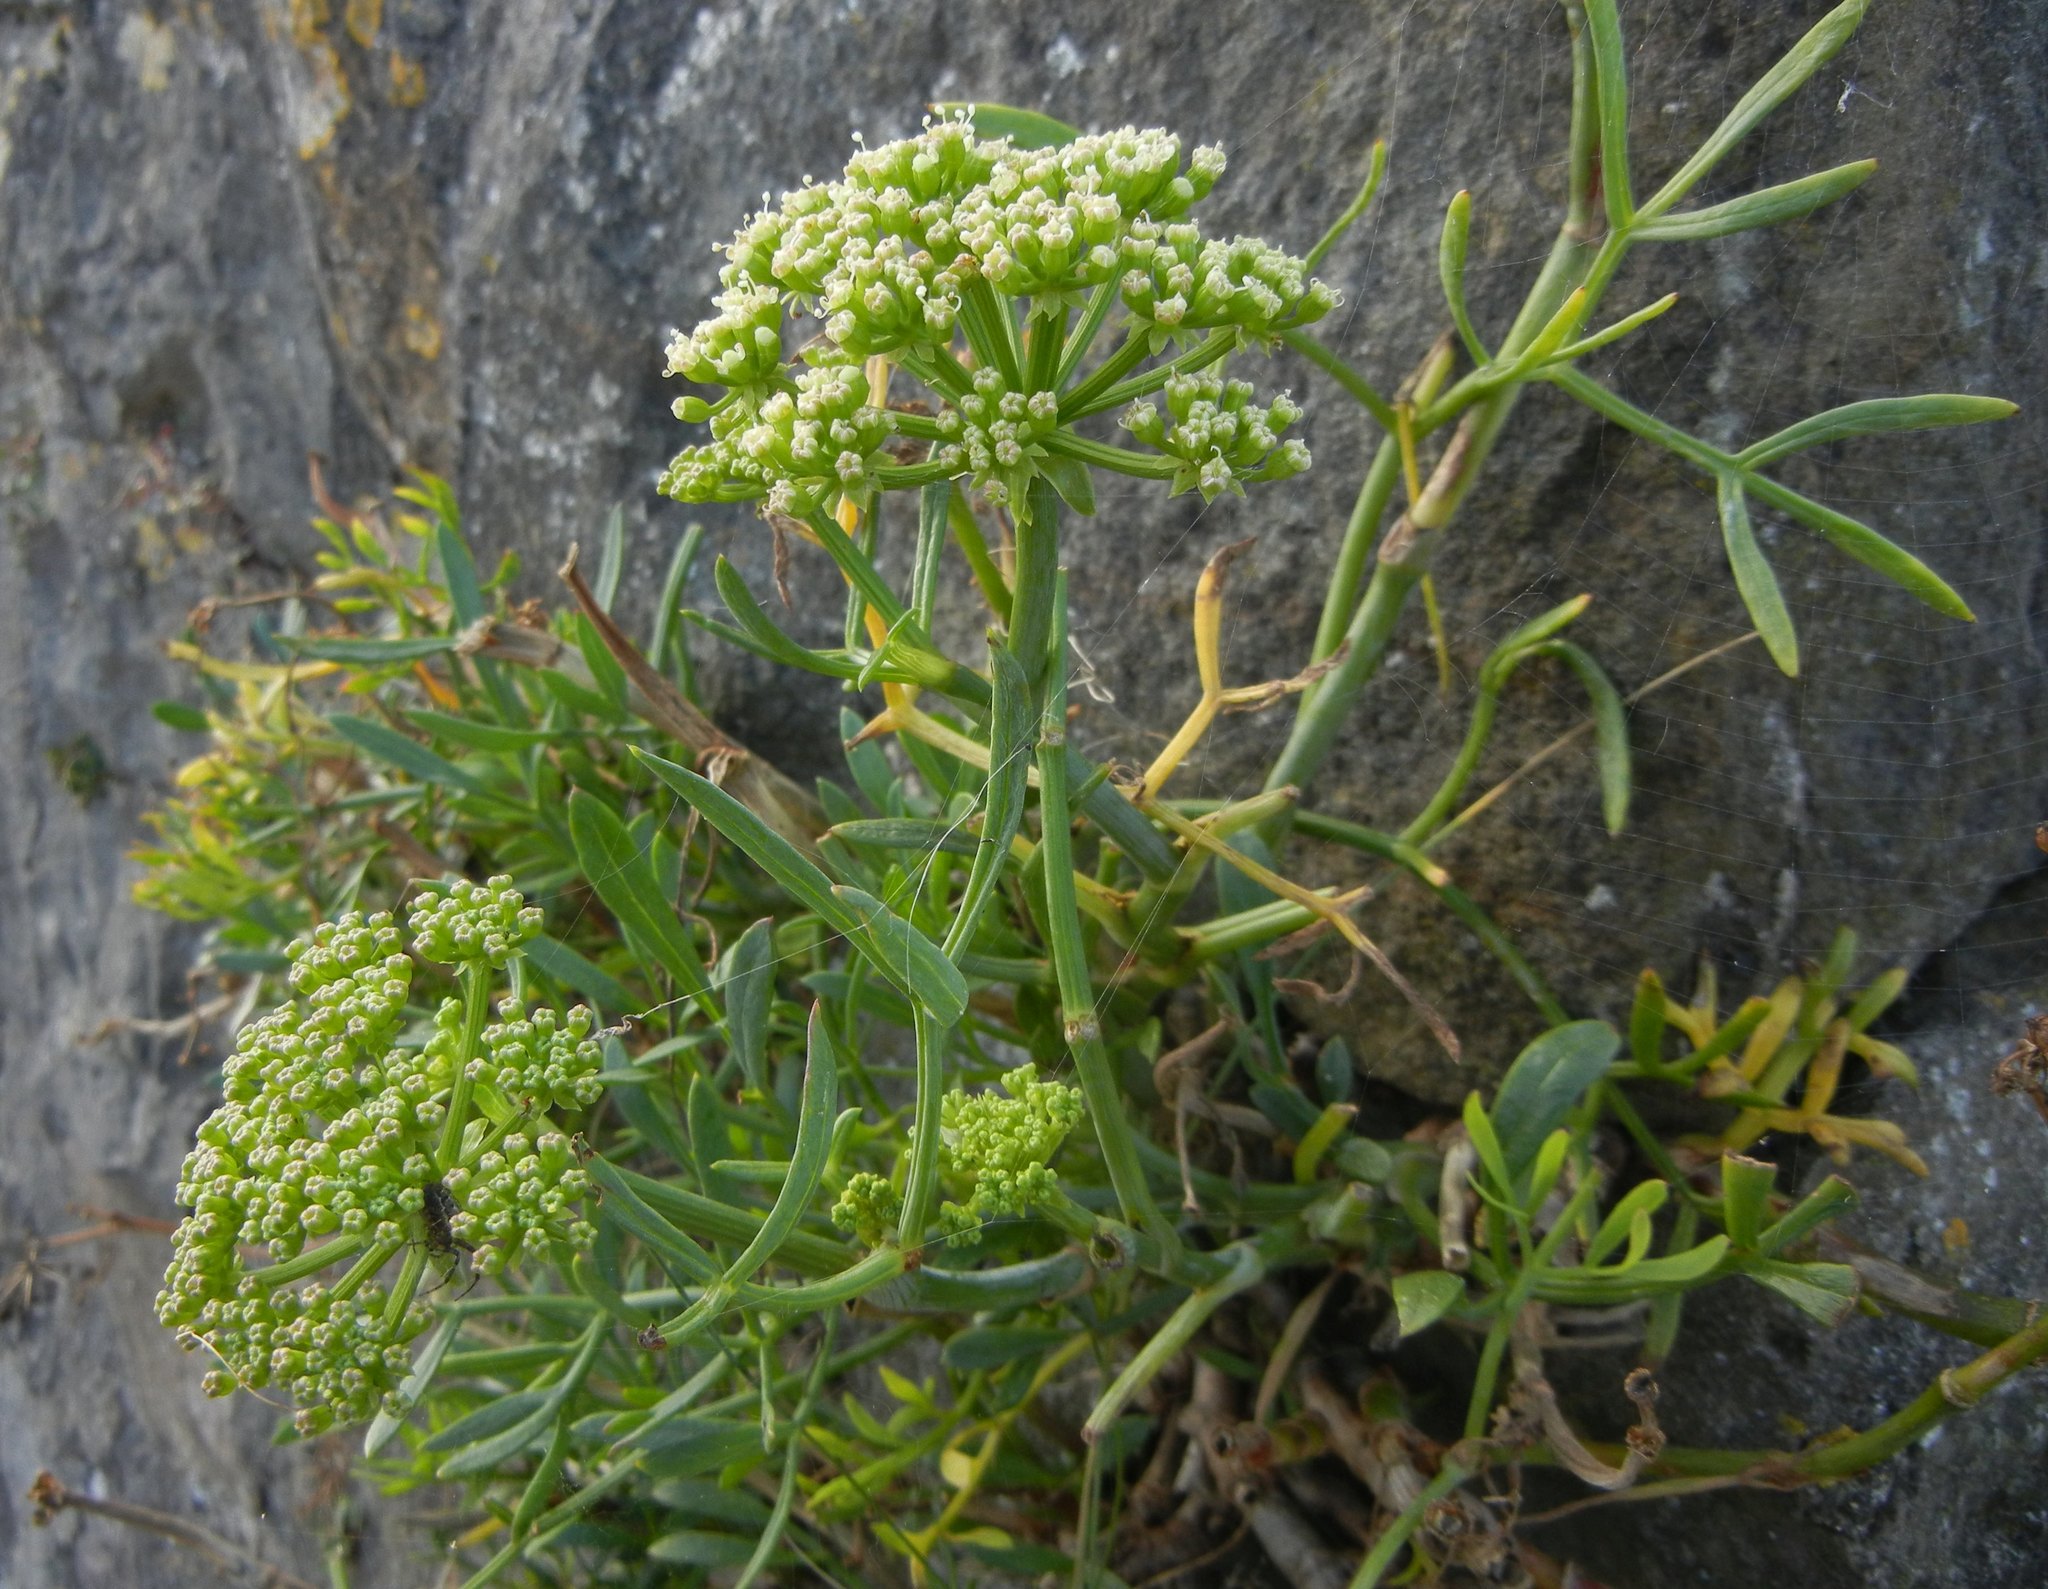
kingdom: Plantae
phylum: Tracheophyta
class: Magnoliopsida
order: Apiales
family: Apiaceae
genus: Crithmum
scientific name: Crithmum maritimum
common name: Rock samphire
